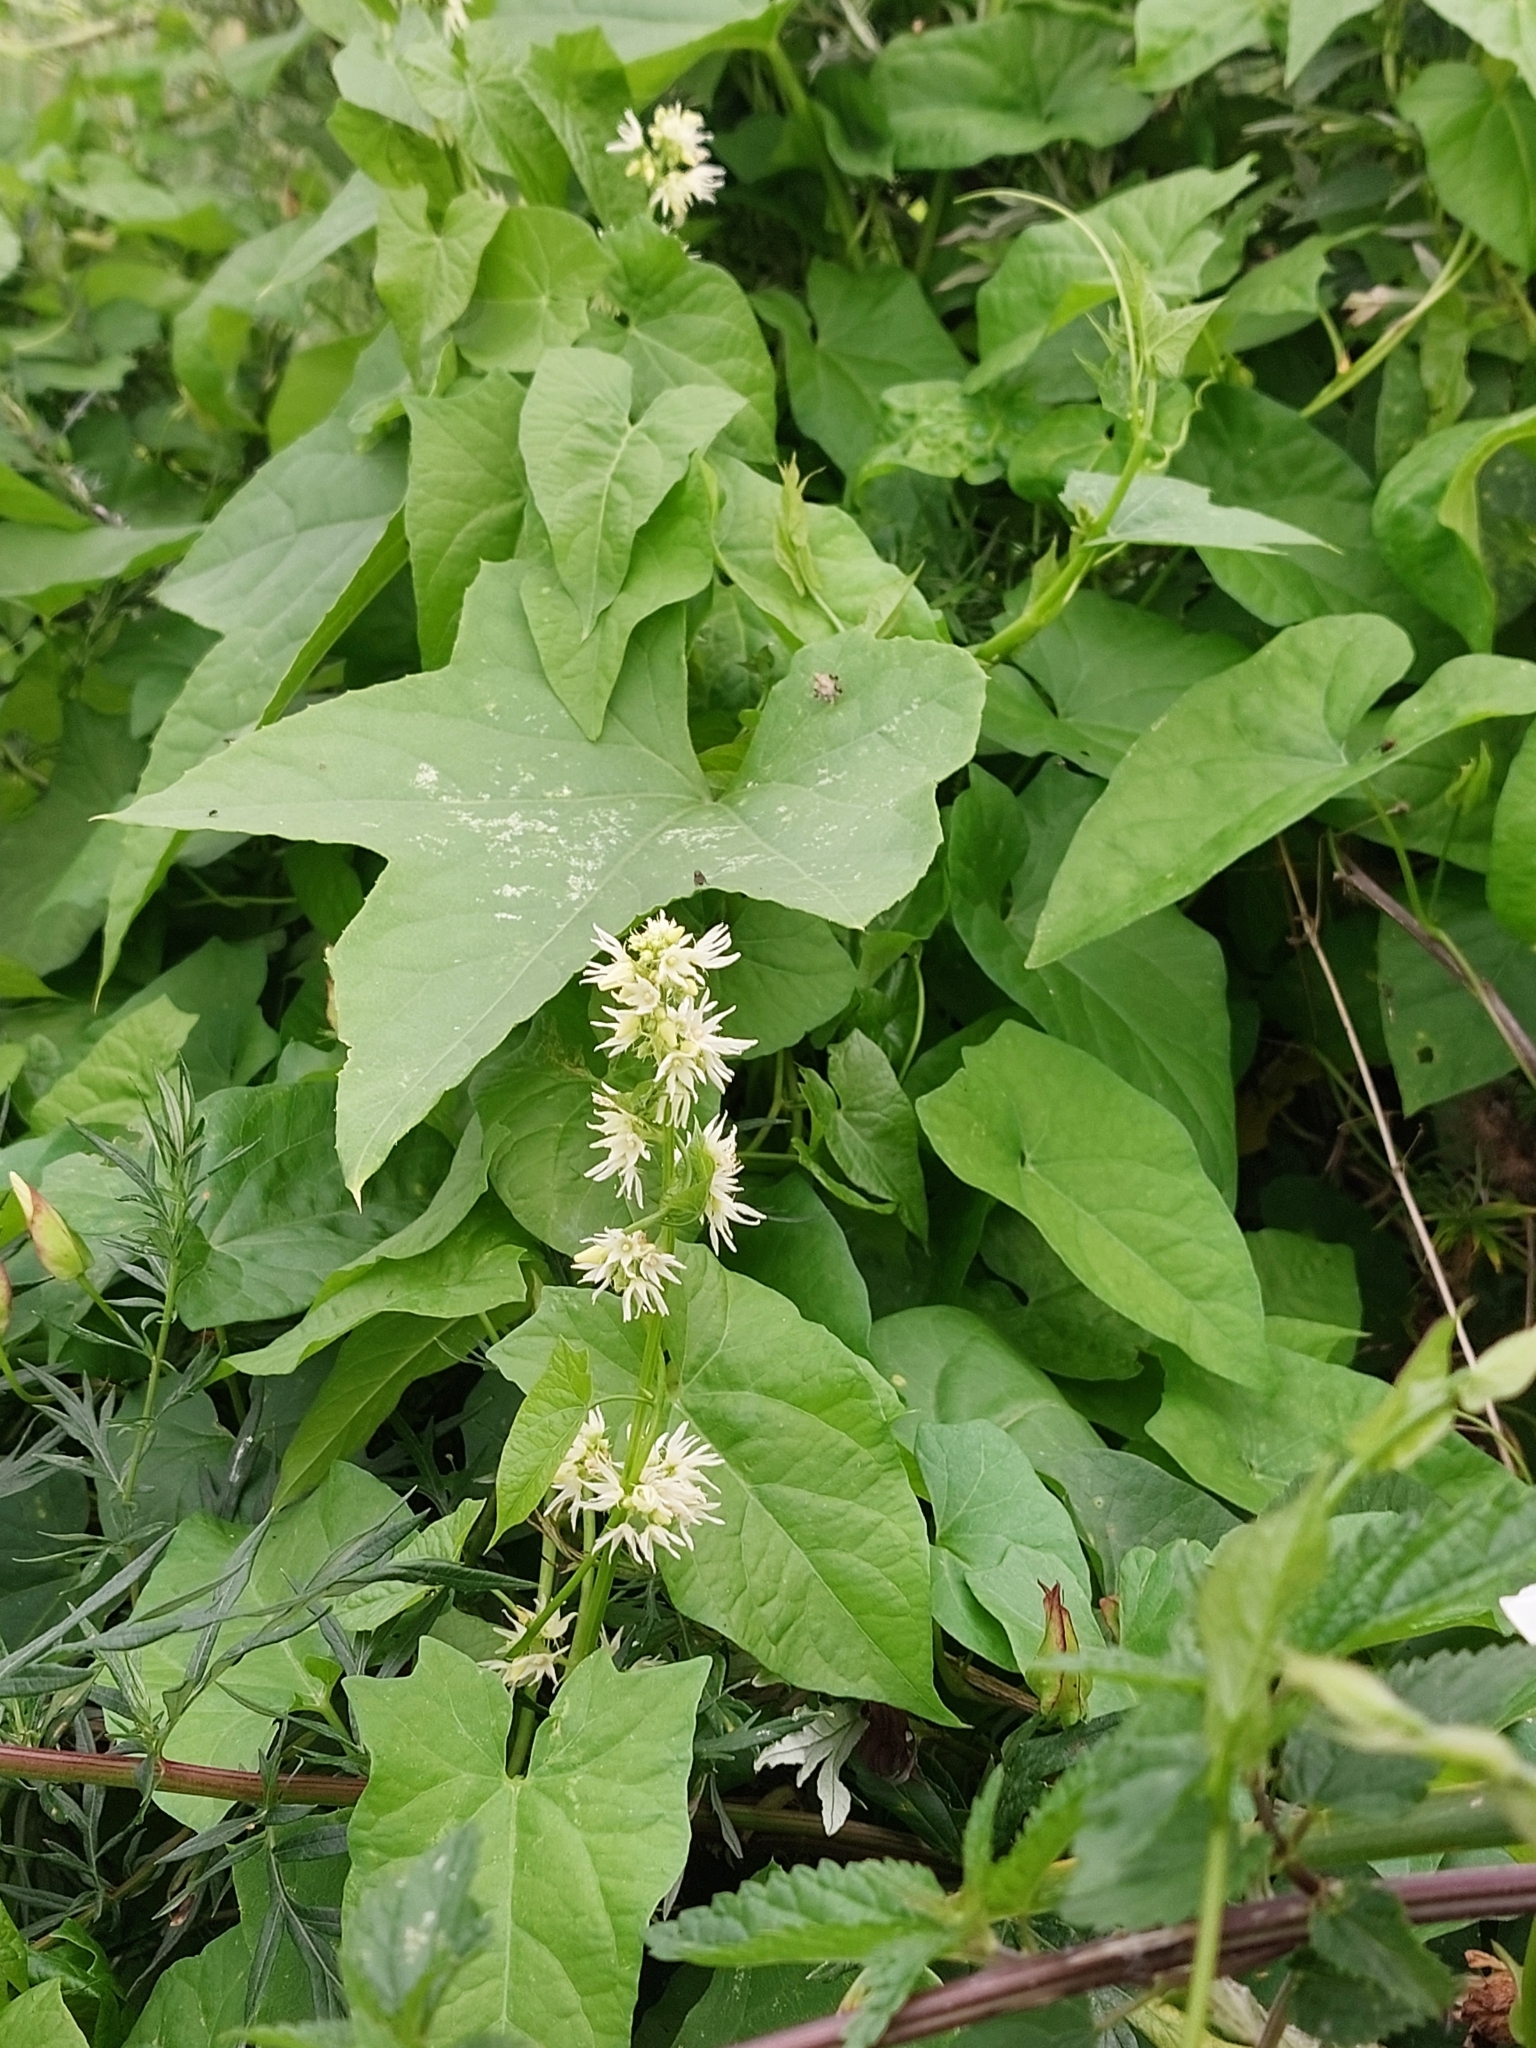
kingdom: Plantae
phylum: Tracheophyta
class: Magnoliopsida
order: Cucurbitales
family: Cucurbitaceae
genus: Echinocystis
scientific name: Echinocystis lobata
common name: Wild cucumber
